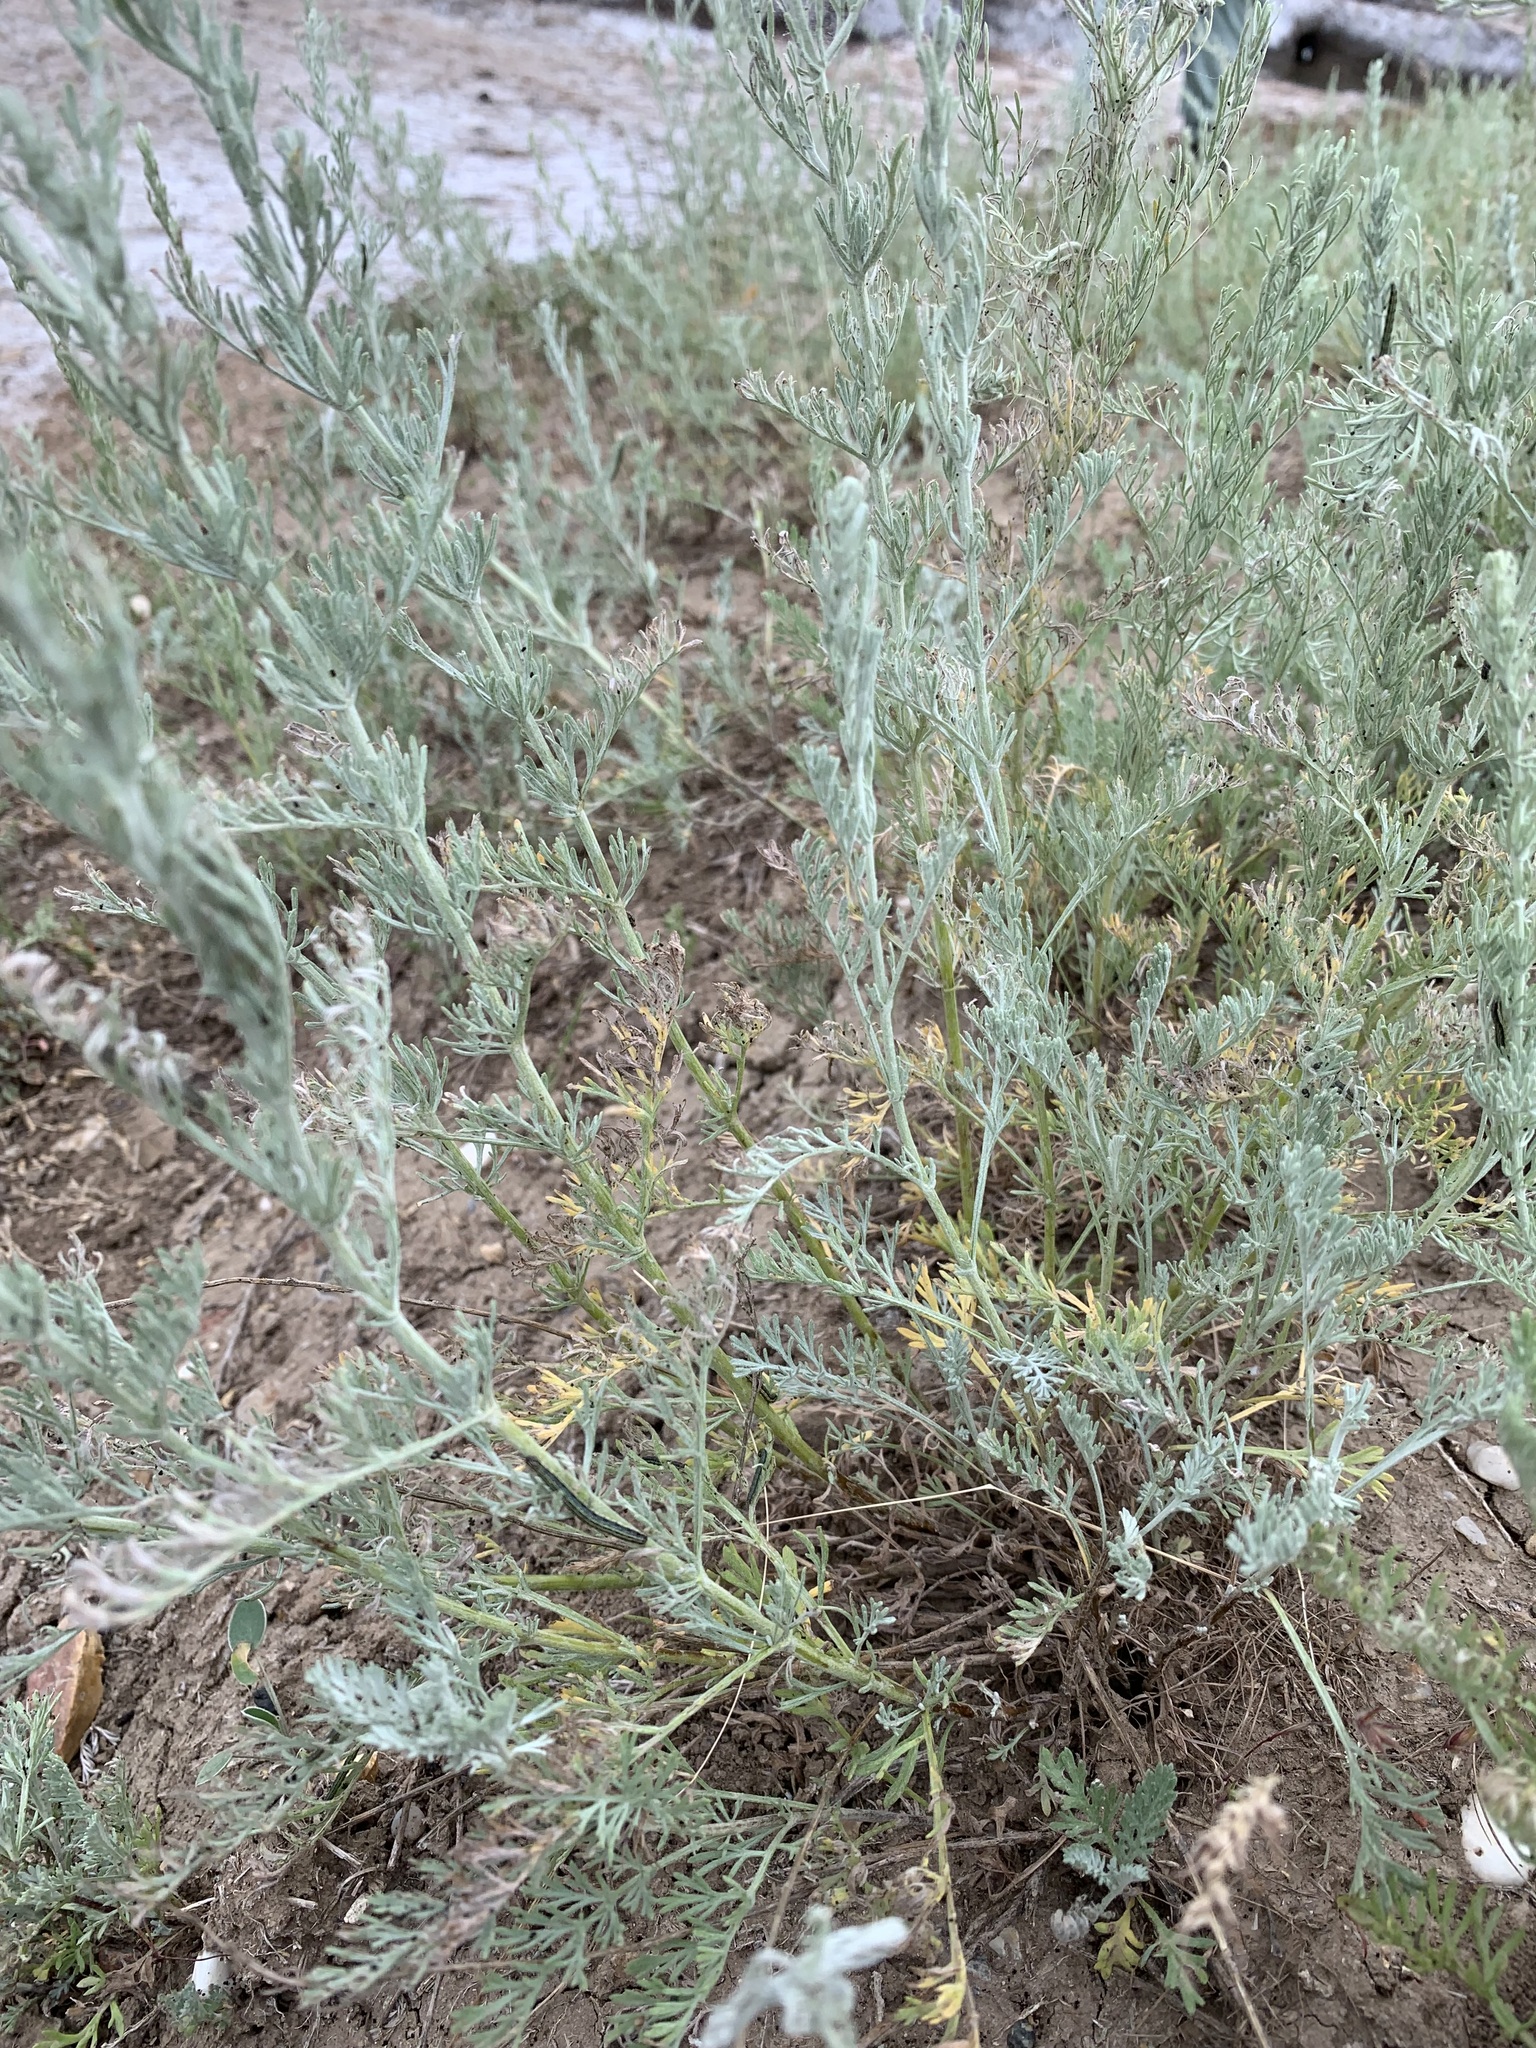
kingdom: Plantae
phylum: Tracheophyta
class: Magnoliopsida
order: Asterales
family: Asteraceae
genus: Artemisia
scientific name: Artemisia nitrosa
